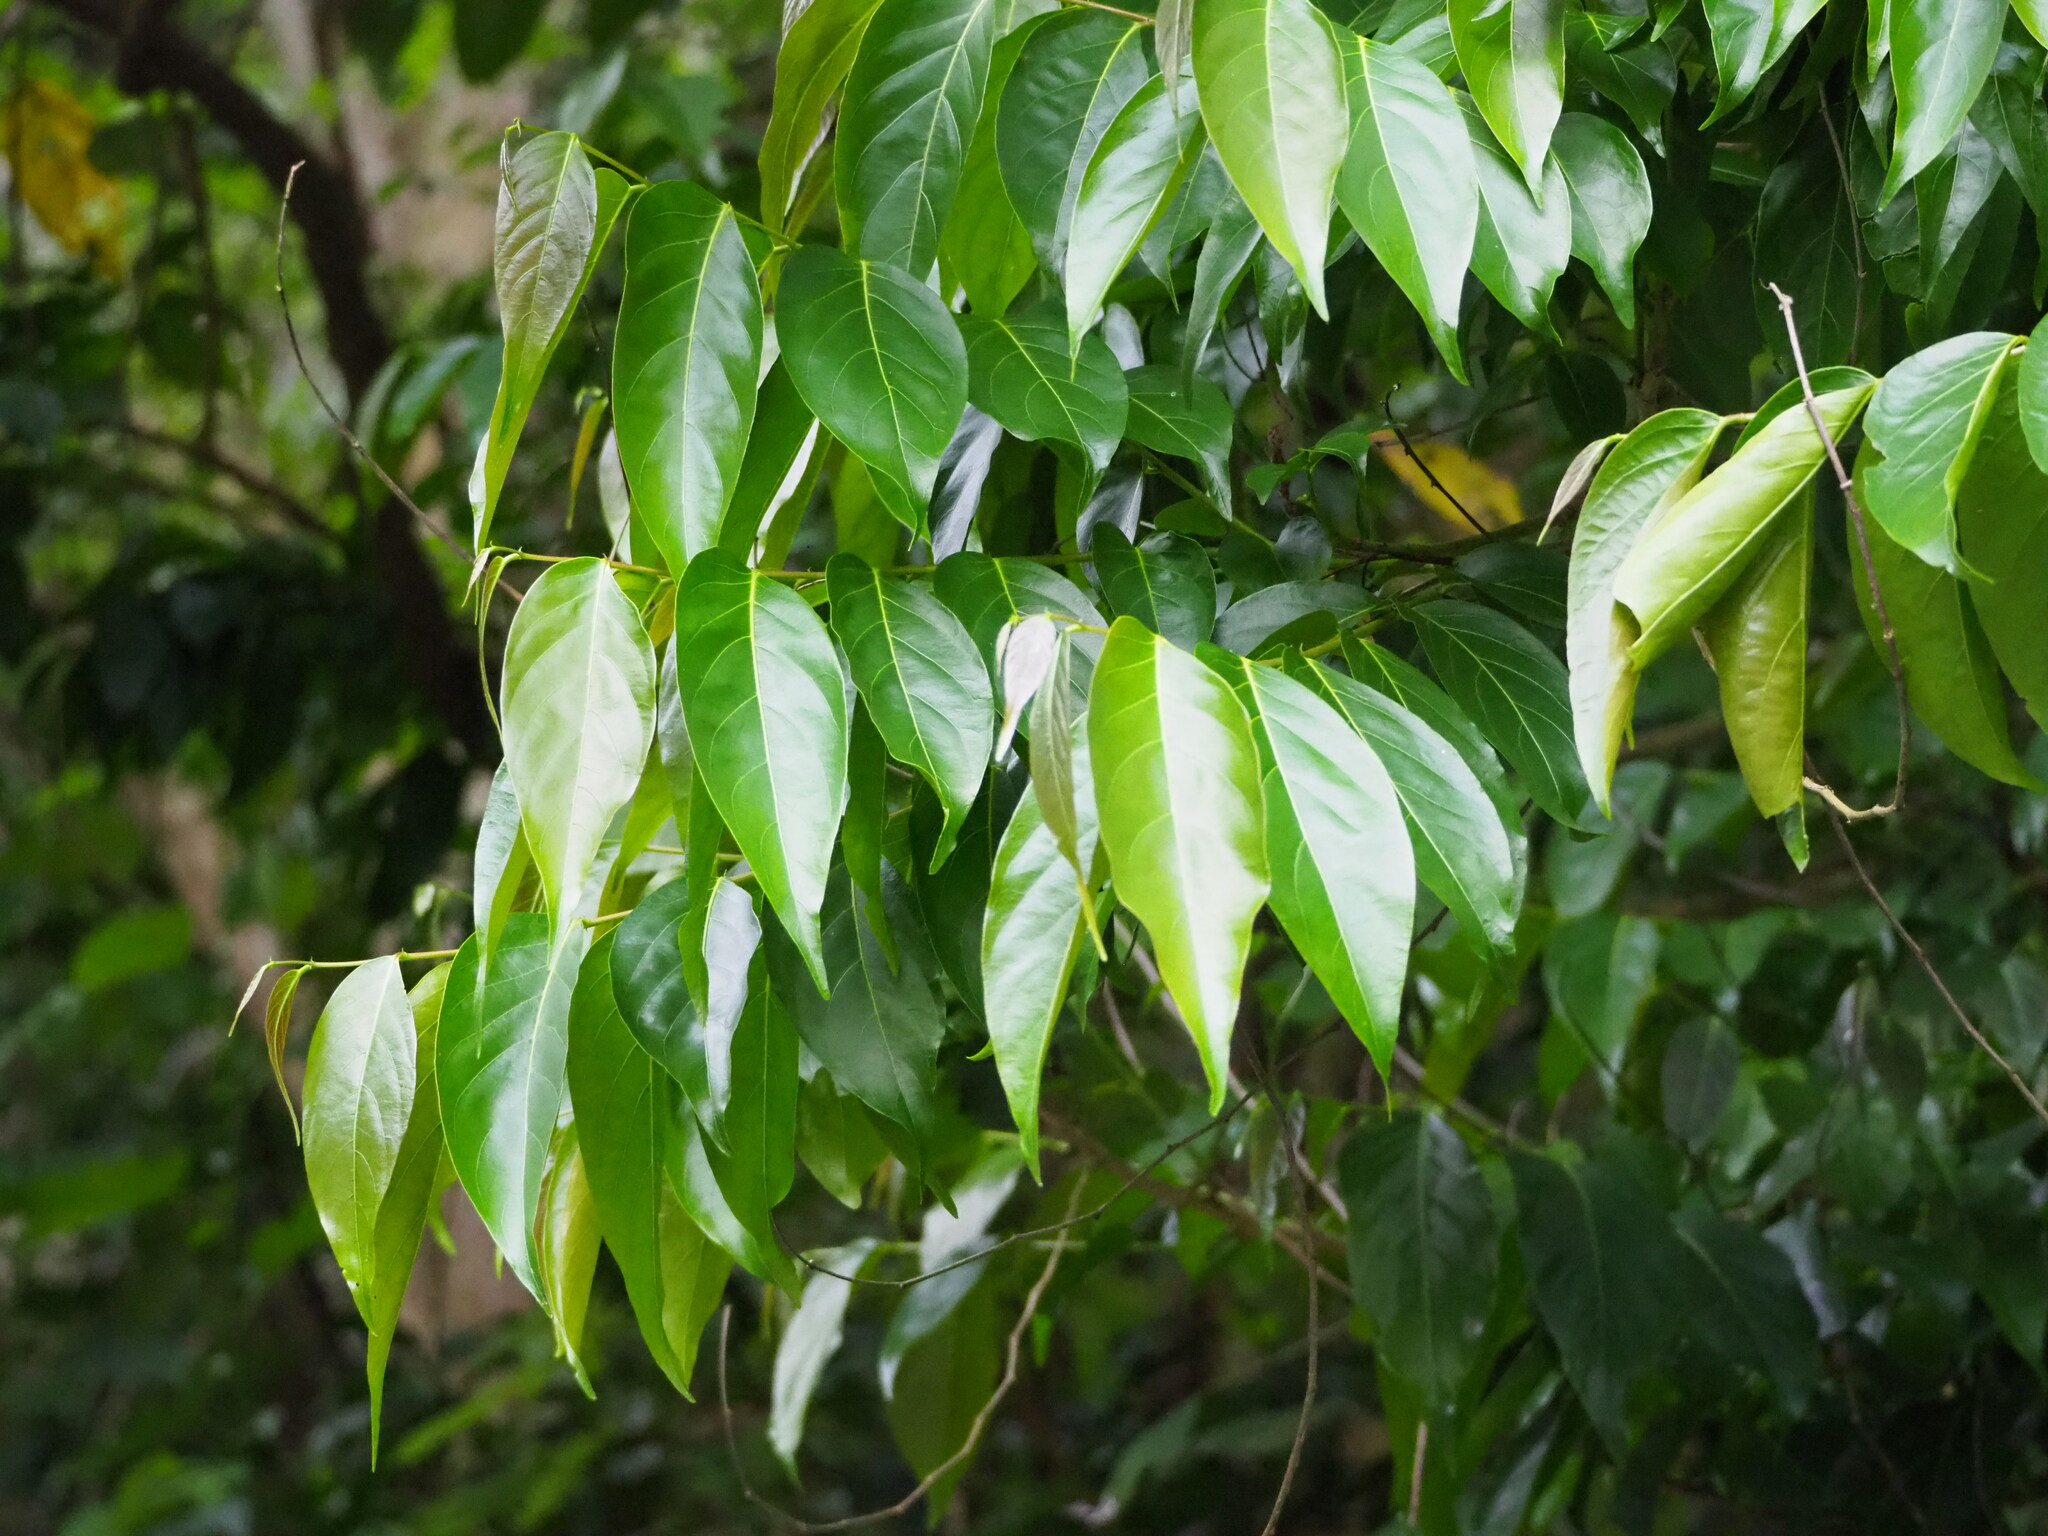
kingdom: Plantae
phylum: Tracheophyta
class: Magnoliopsida
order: Malpighiales
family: Phyllanthaceae
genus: Glochidion
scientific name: Glochidion zeylanicum
